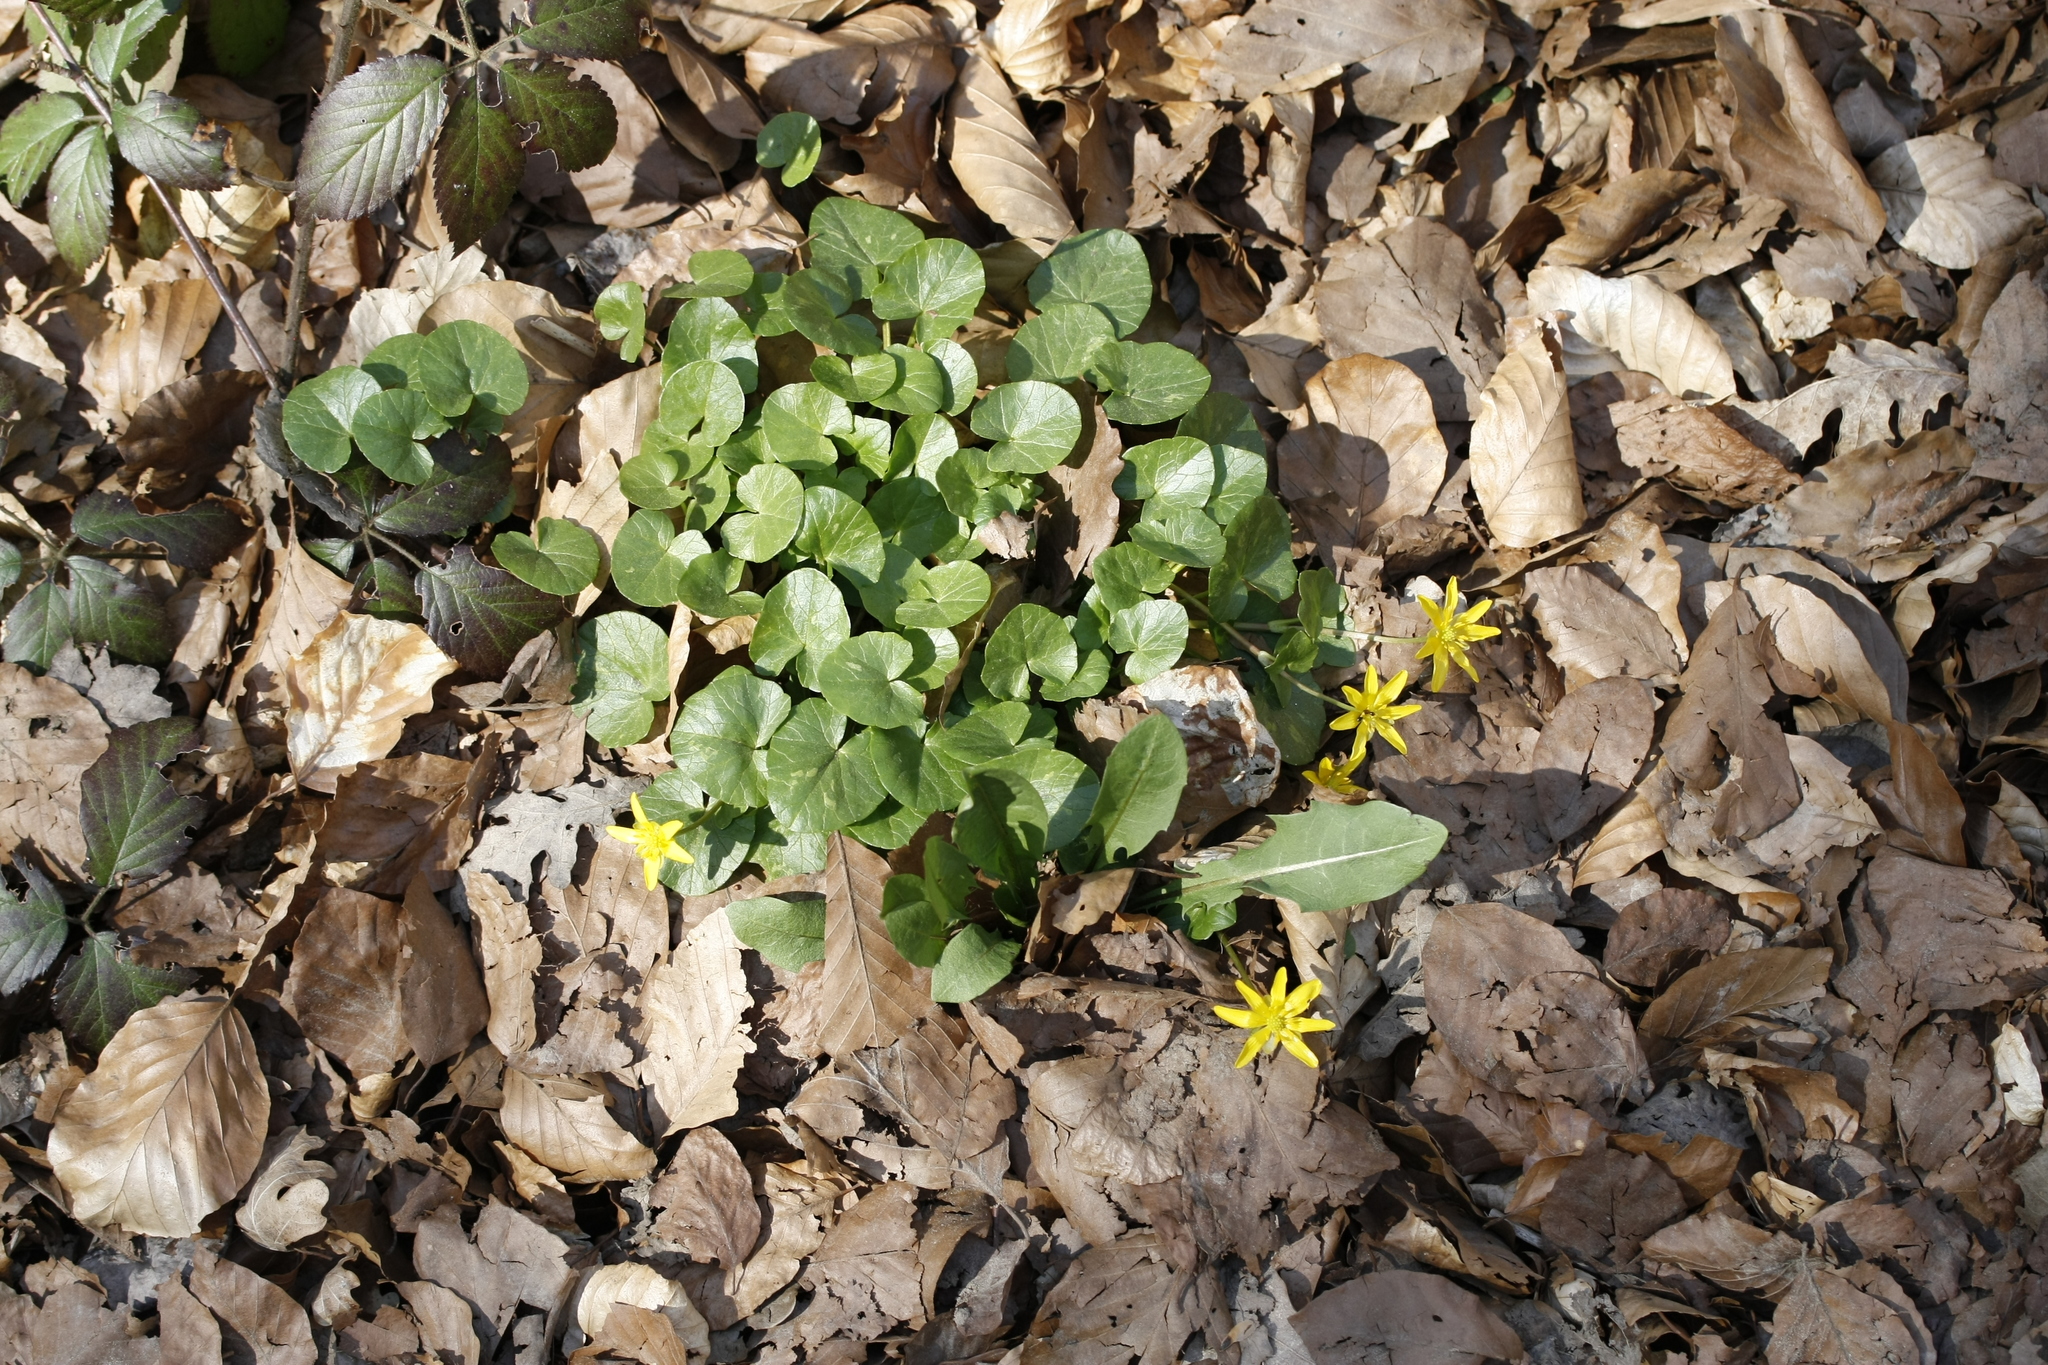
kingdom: Plantae
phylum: Tracheophyta
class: Magnoliopsida
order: Ranunculales
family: Ranunculaceae
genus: Ficaria
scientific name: Ficaria verna
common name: Lesser celandine
